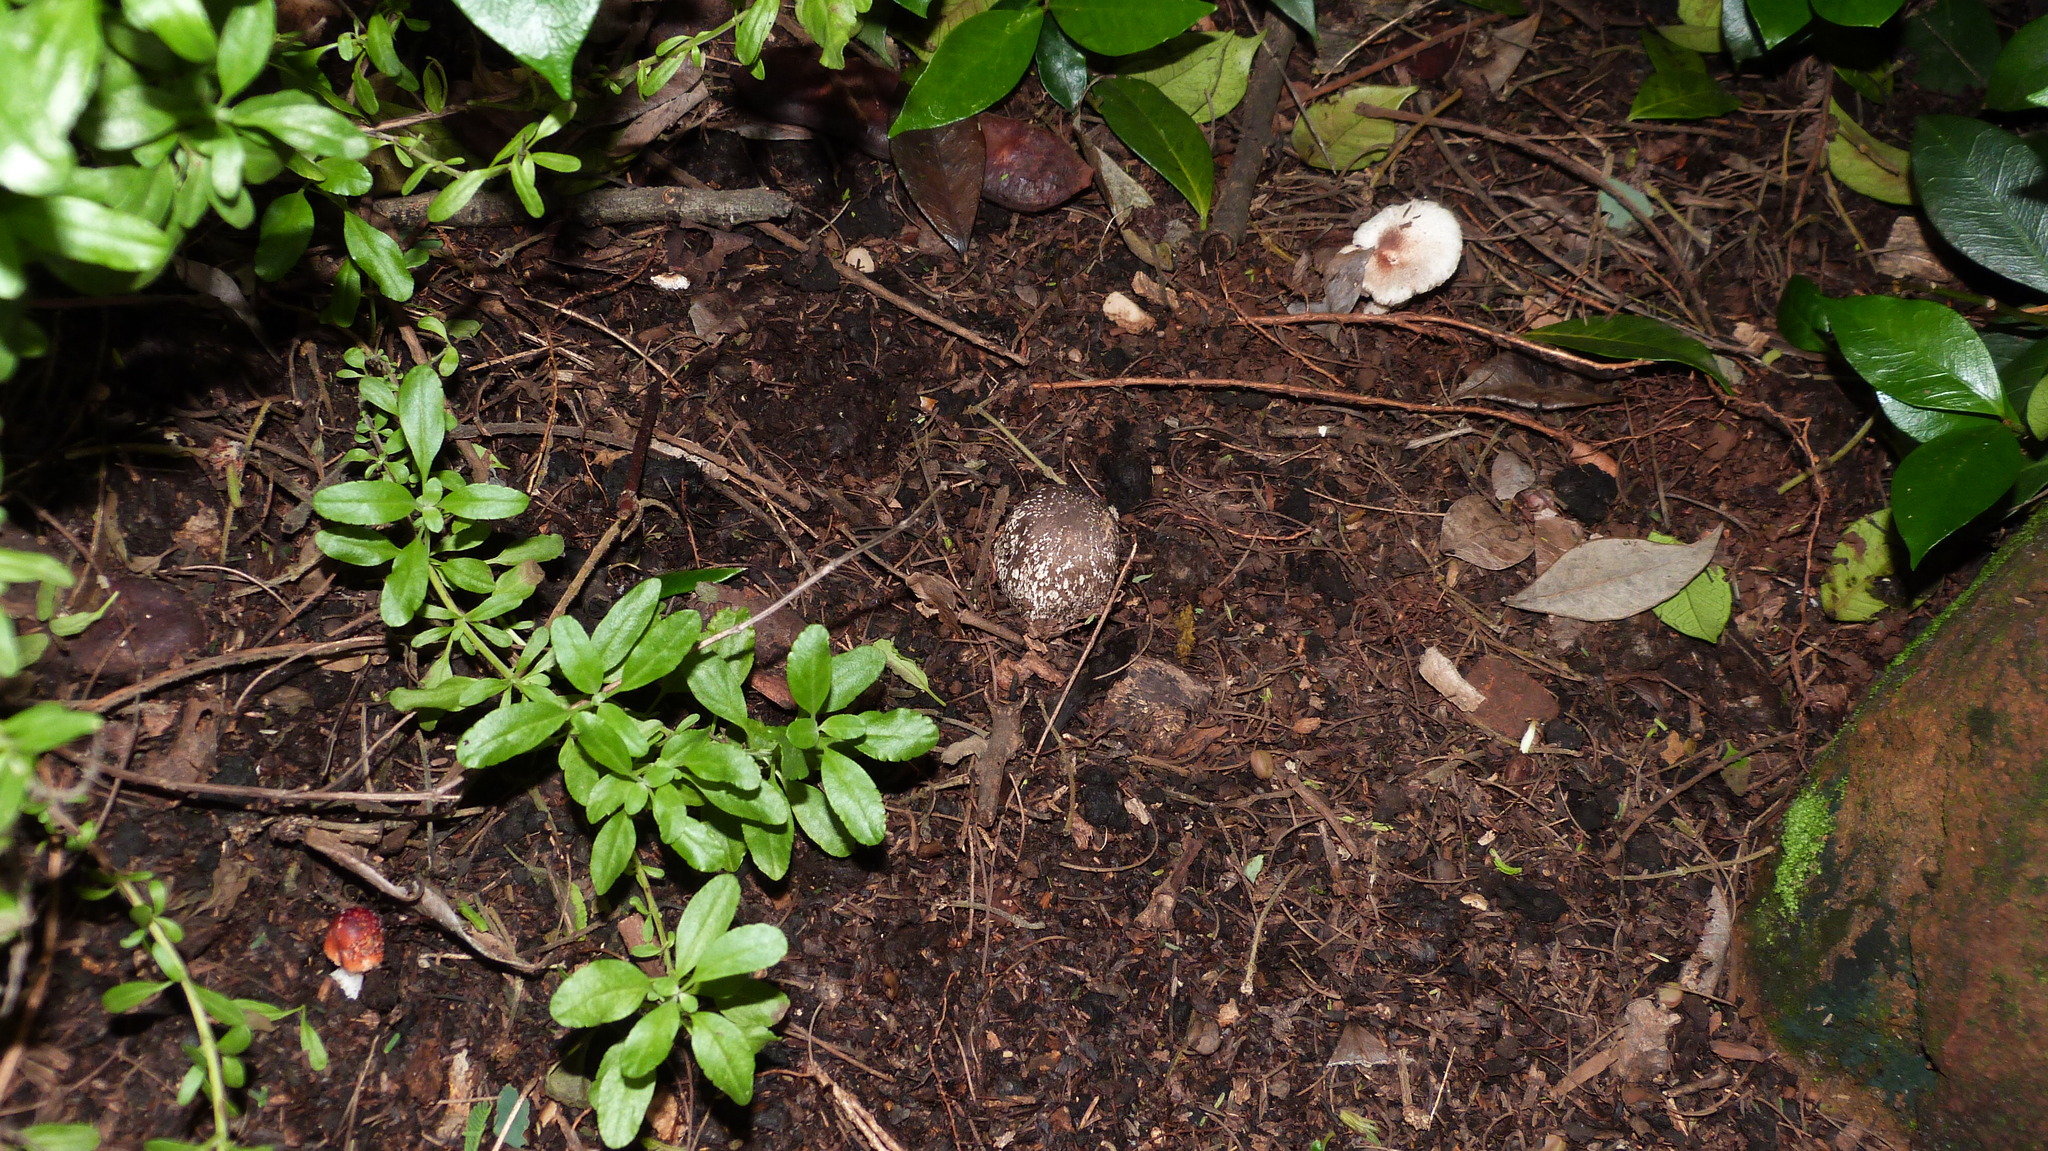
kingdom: Fungi
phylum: Basidiomycota
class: Agaricomycetes
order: Agaricales
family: Agaricaceae
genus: Leucoagaricus
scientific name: Leucoagaricus rubrotinctus
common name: Ruby dapperling
